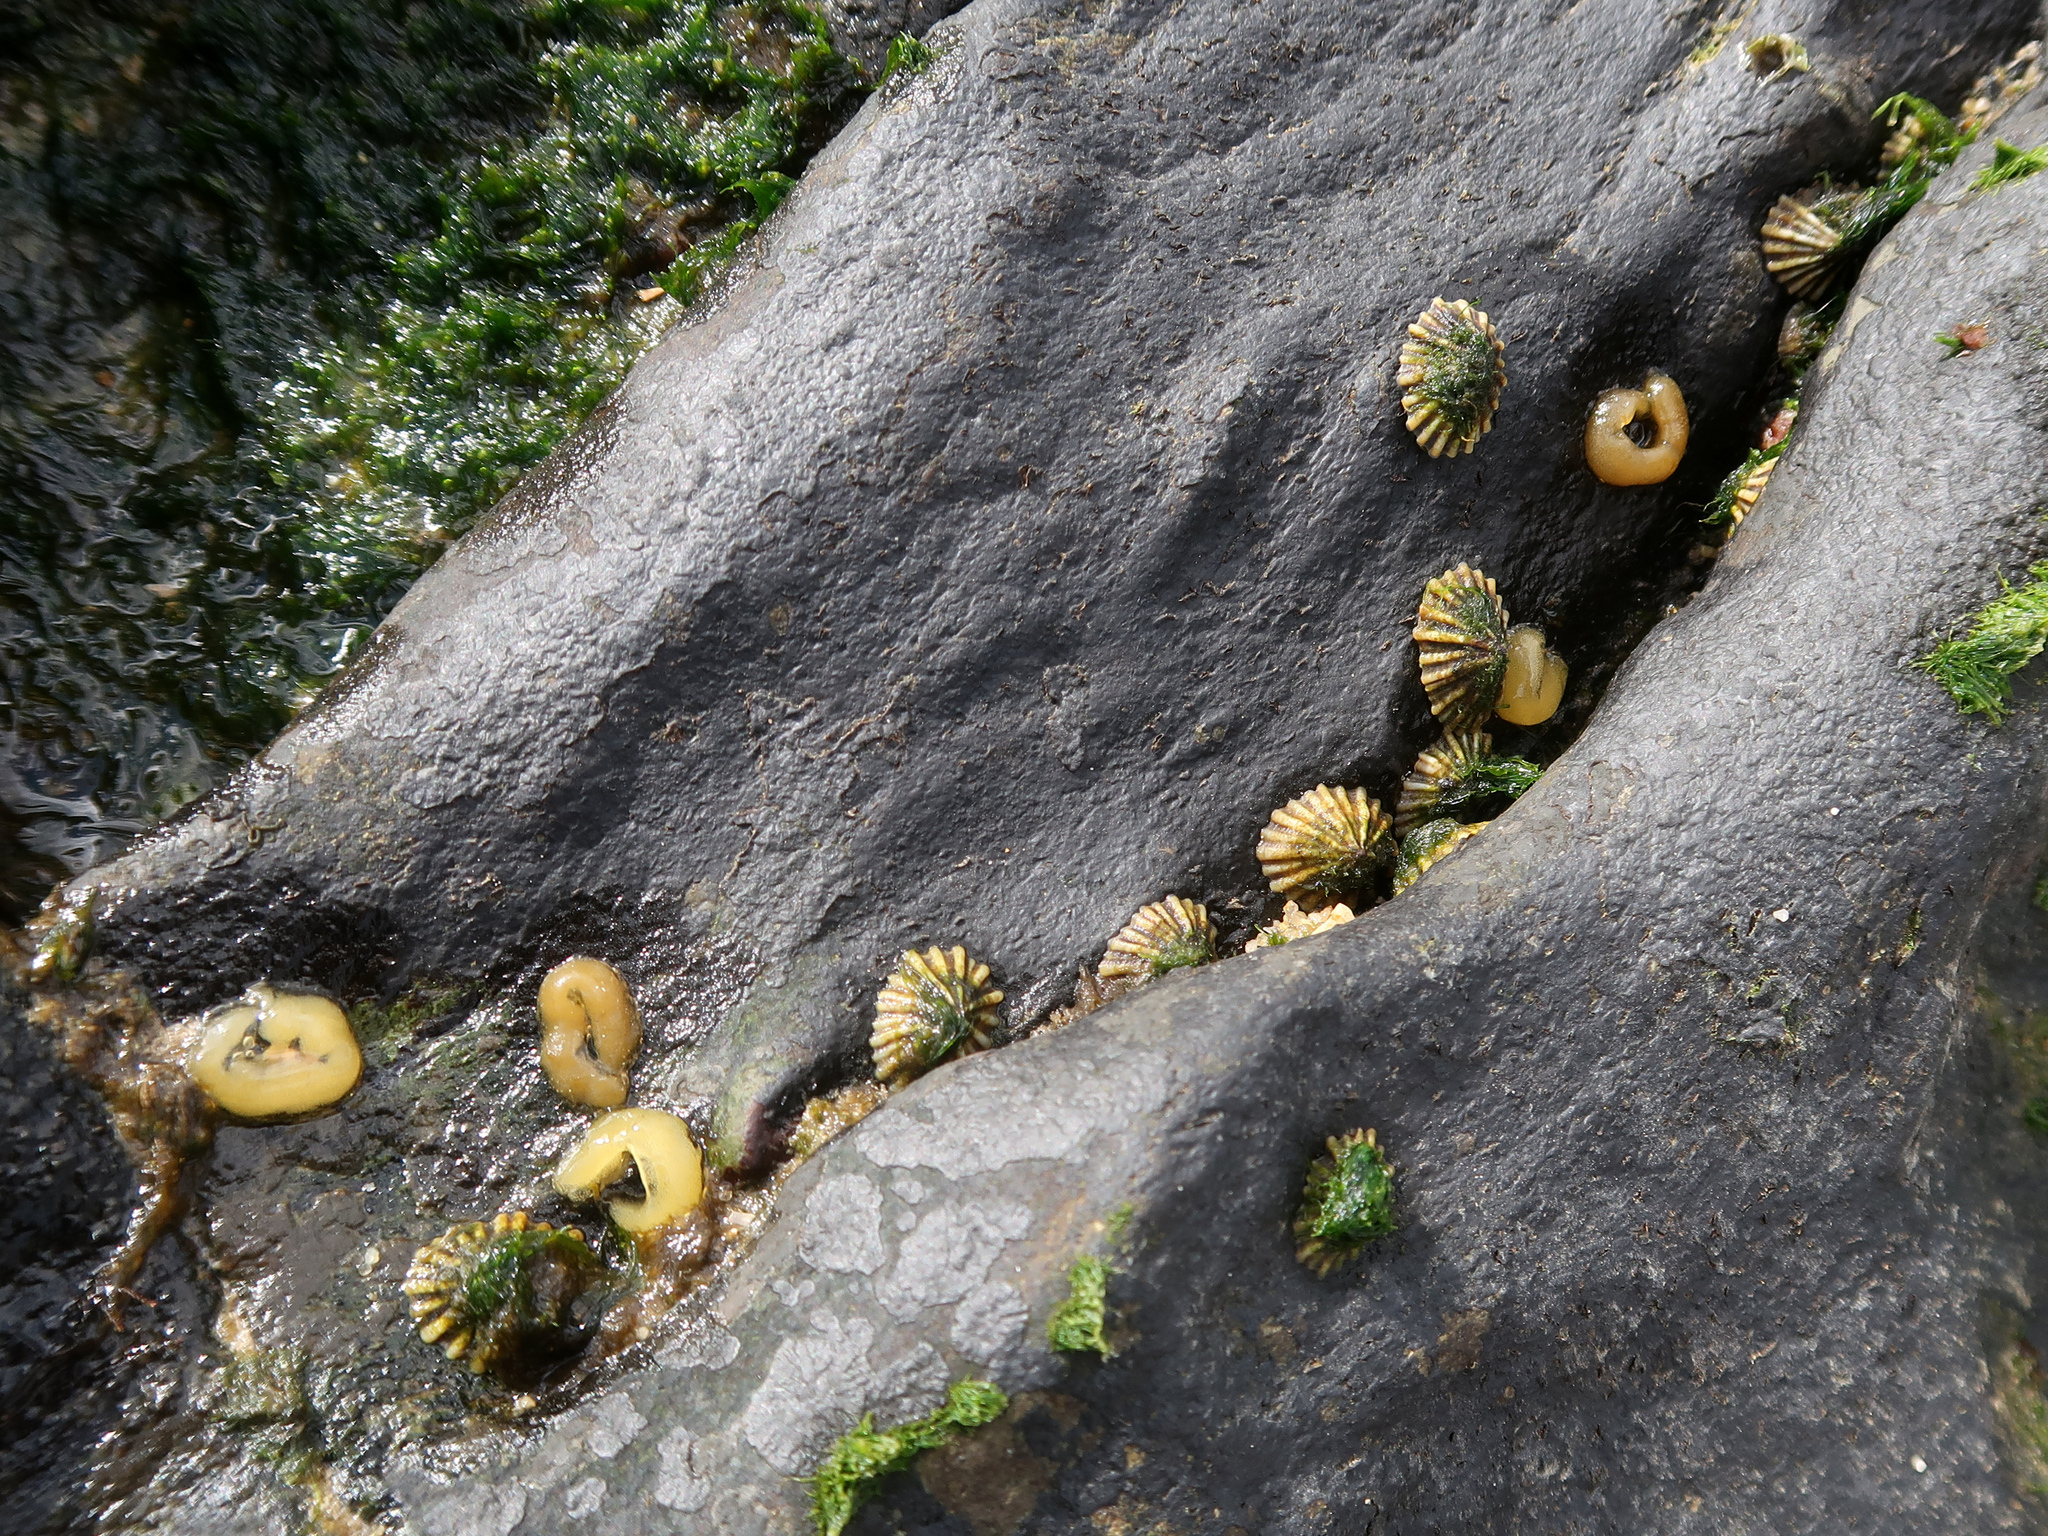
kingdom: Animalia
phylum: Mollusca
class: Gastropoda
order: Siphonariida
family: Siphonariidae
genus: Siphonaria
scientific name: Siphonaria diemenensis
